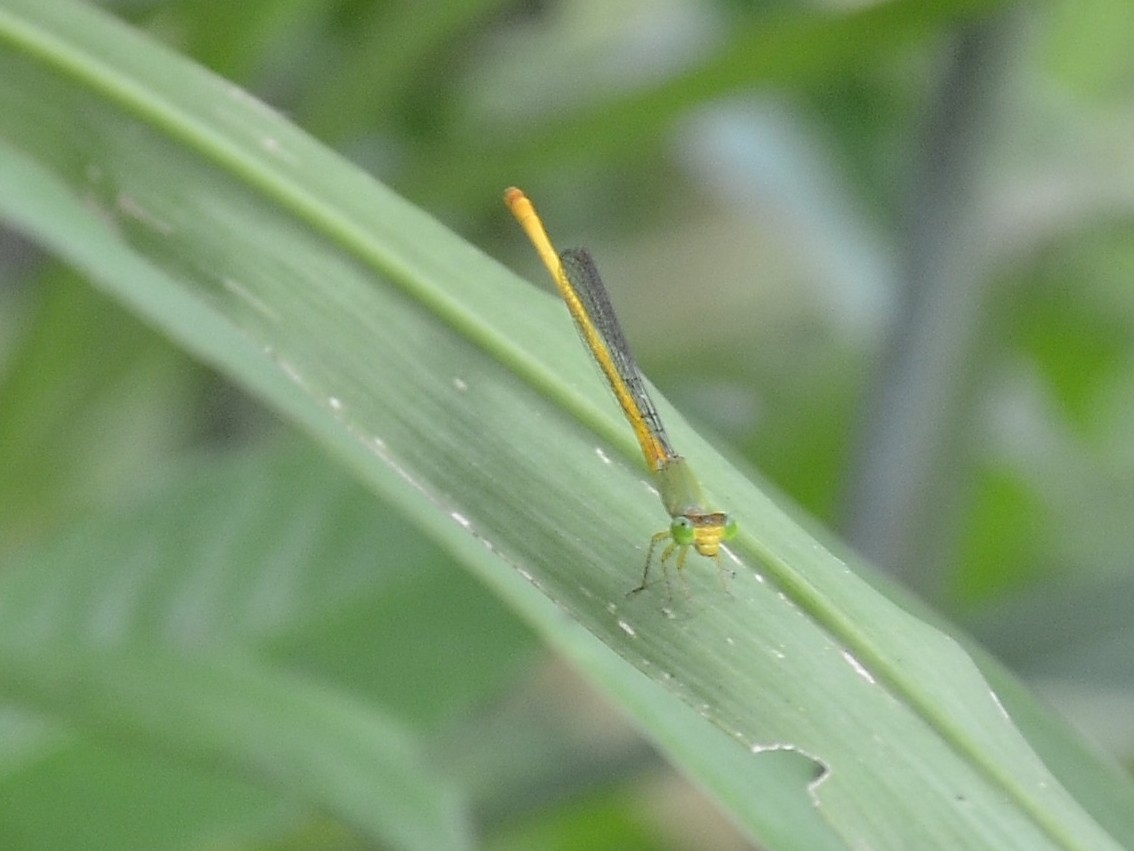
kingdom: Animalia
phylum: Arthropoda
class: Insecta
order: Odonata
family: Coenagrionidae
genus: Ceriagrion
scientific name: Ceriagrion coromandelianum
